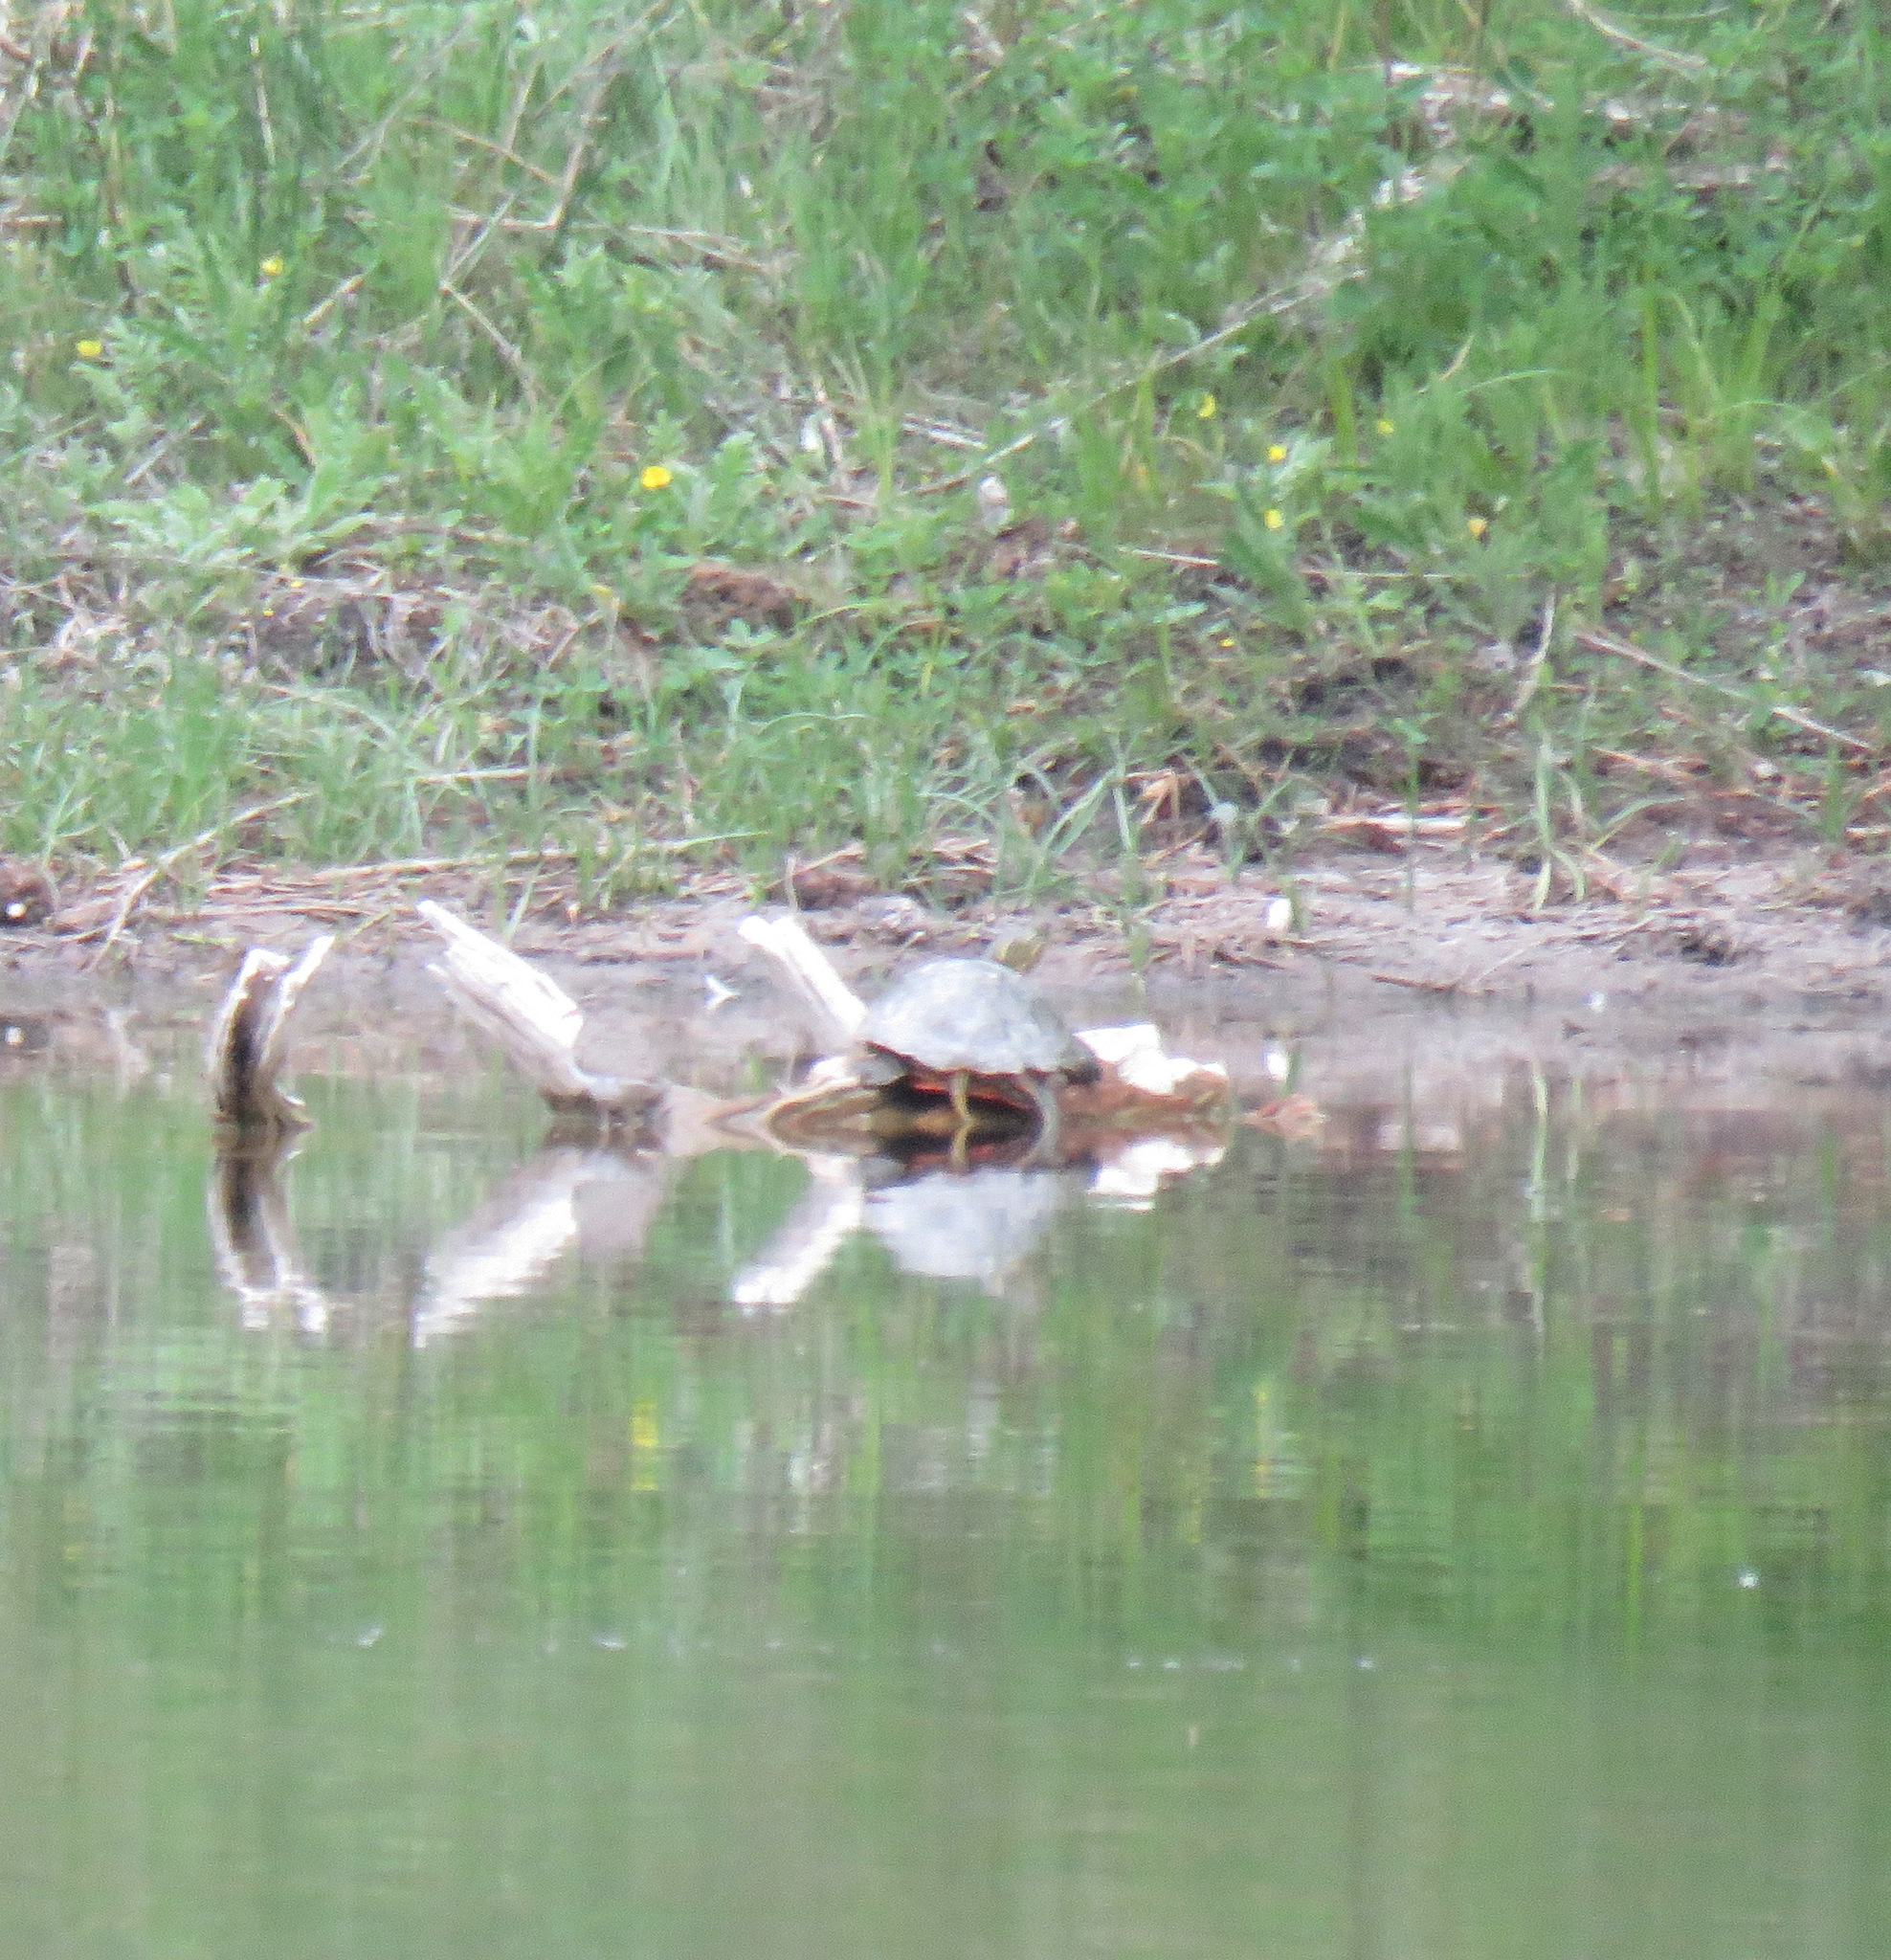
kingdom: Animalia
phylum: Chordata
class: Testudines
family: Emydidae
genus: Chrysemys
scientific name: Chrysemys picta
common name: Painted turtle
